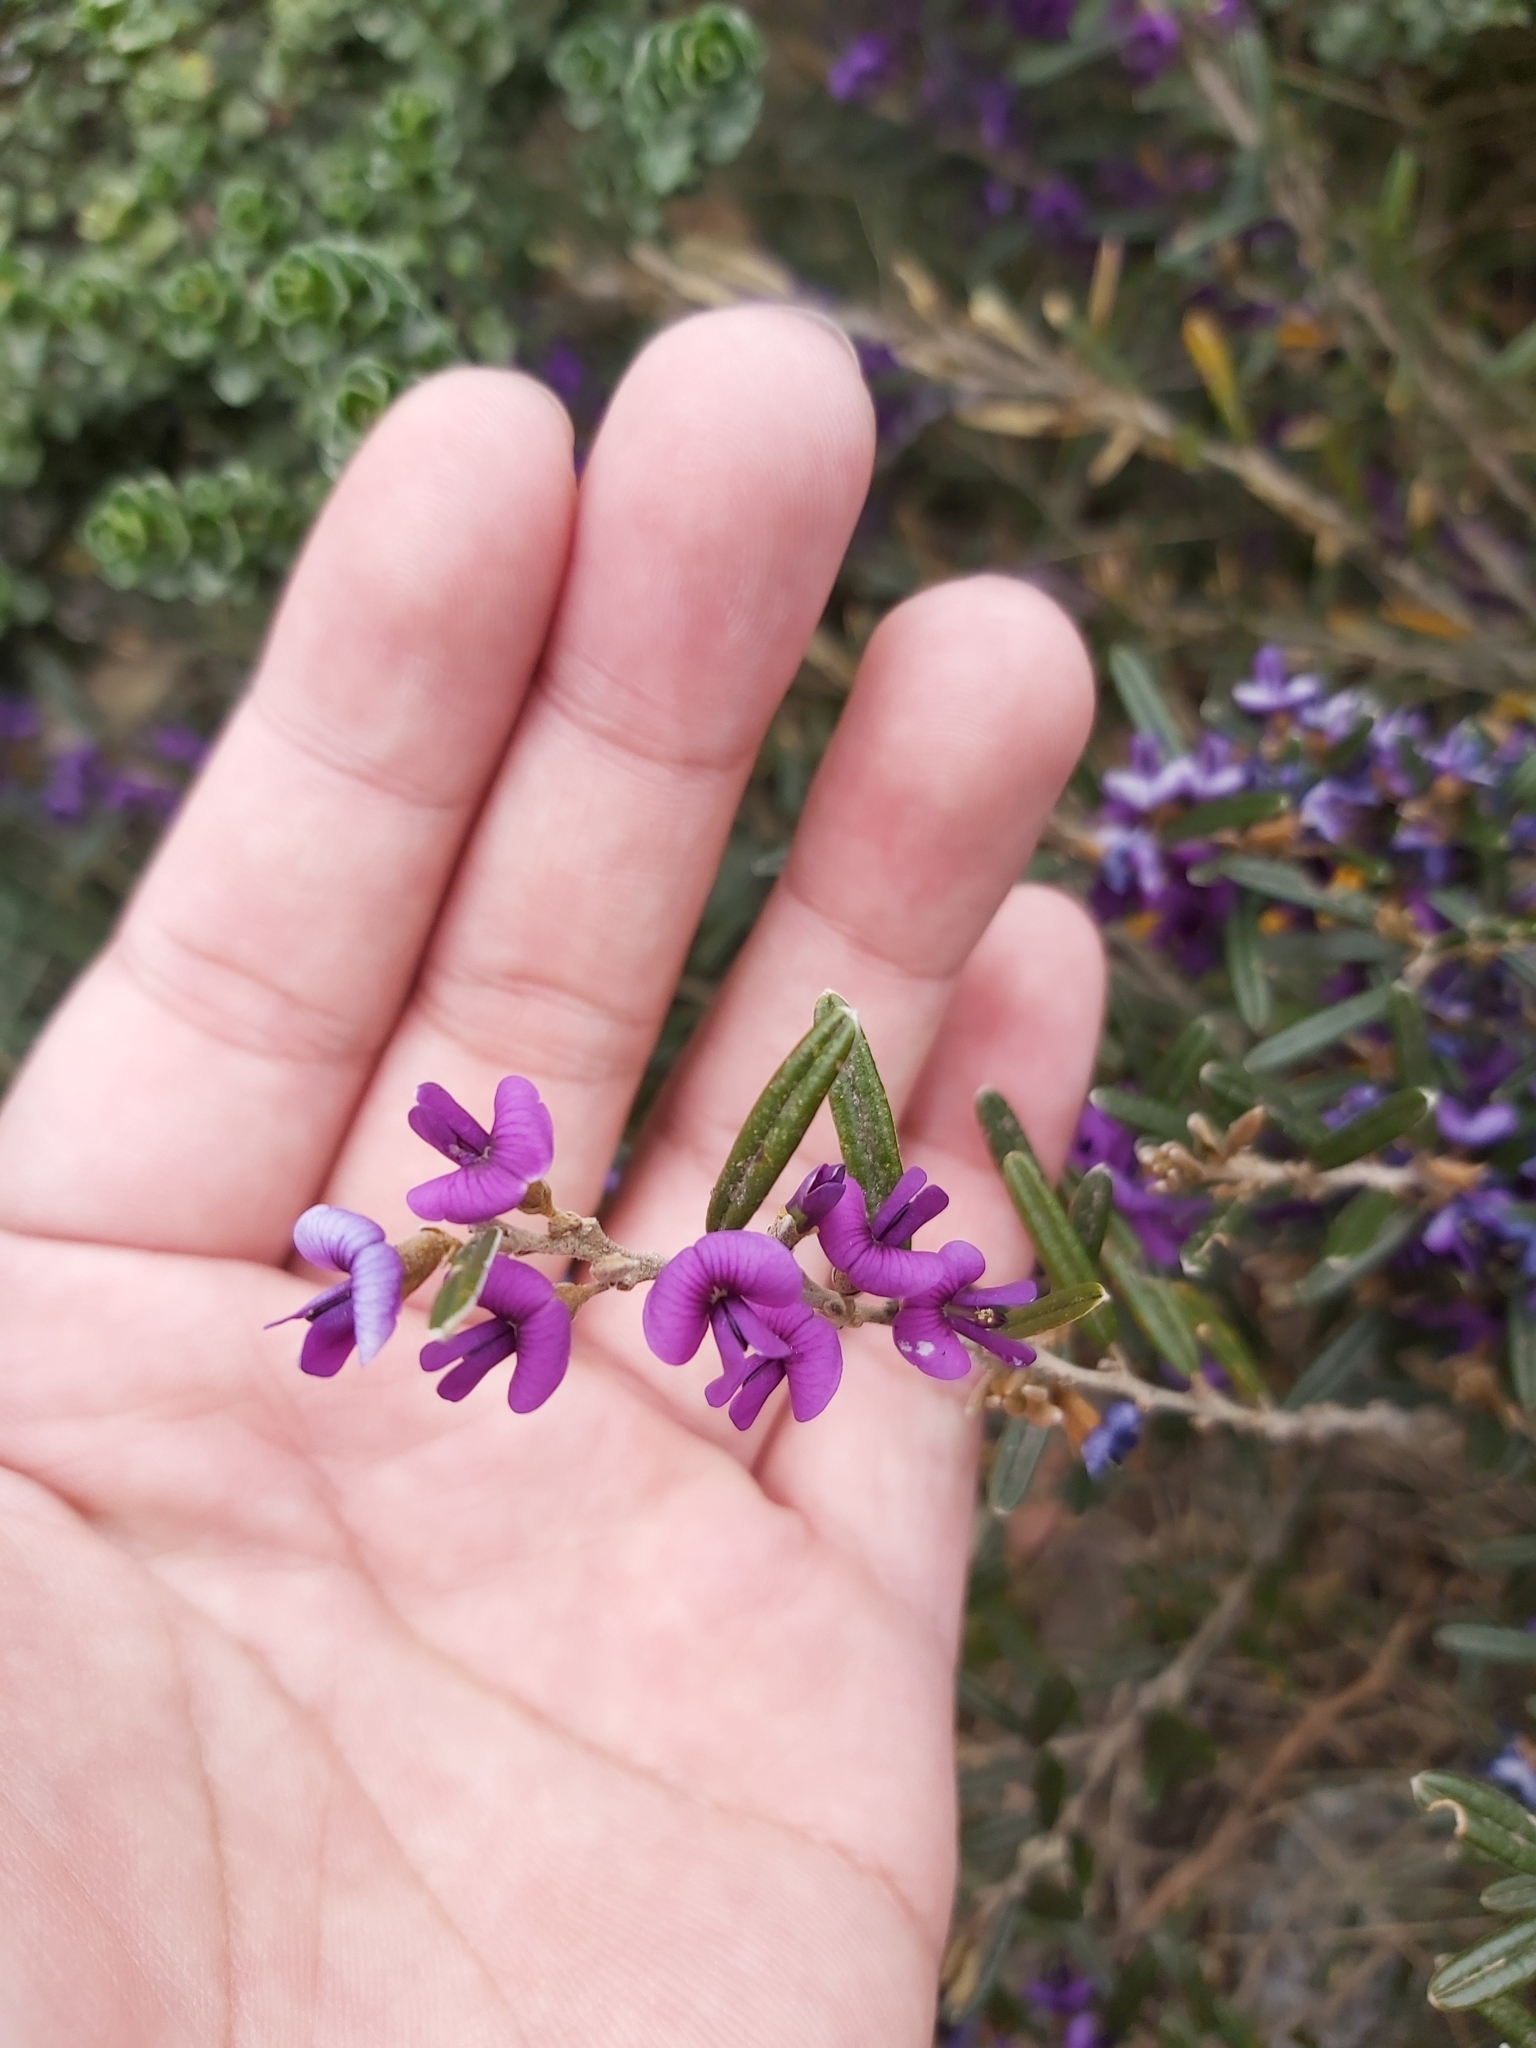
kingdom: Plantae
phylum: Tracheophyta
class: Magnoliopsida
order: Fabales
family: Fabaceae
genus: Hovea
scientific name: Hovea montana
